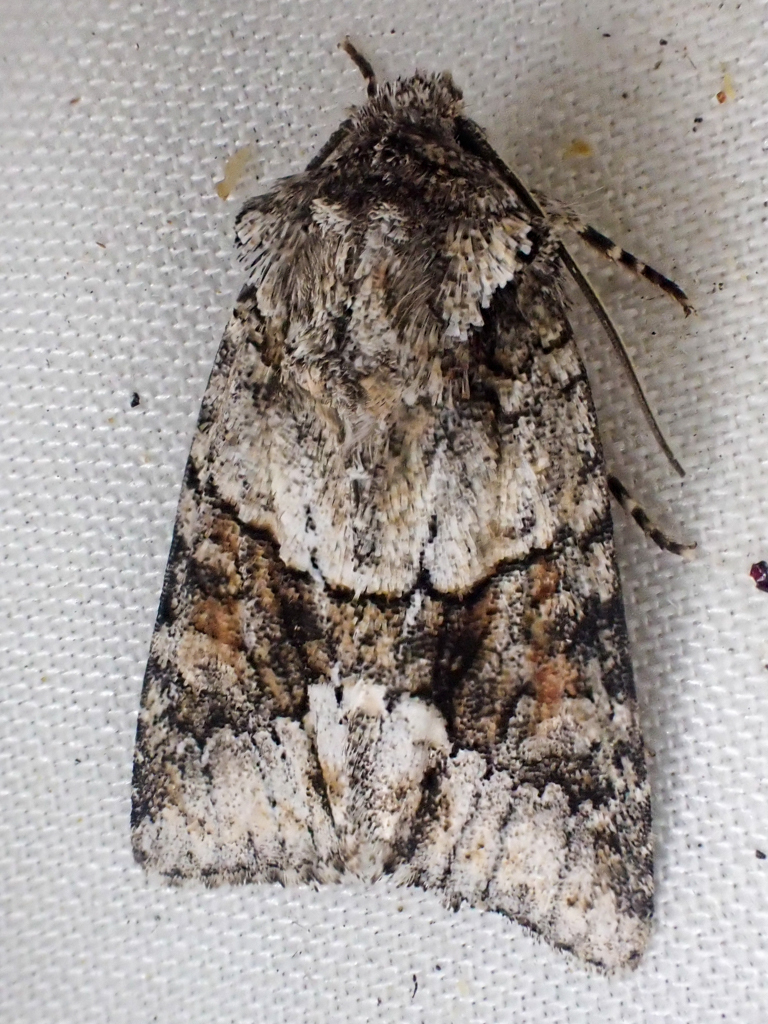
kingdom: Animalia
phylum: Arthropoda
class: Insecta
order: Lepidoptera
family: Noctuidae
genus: Lacinipolia
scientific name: Lacinipolia quadrilineata
